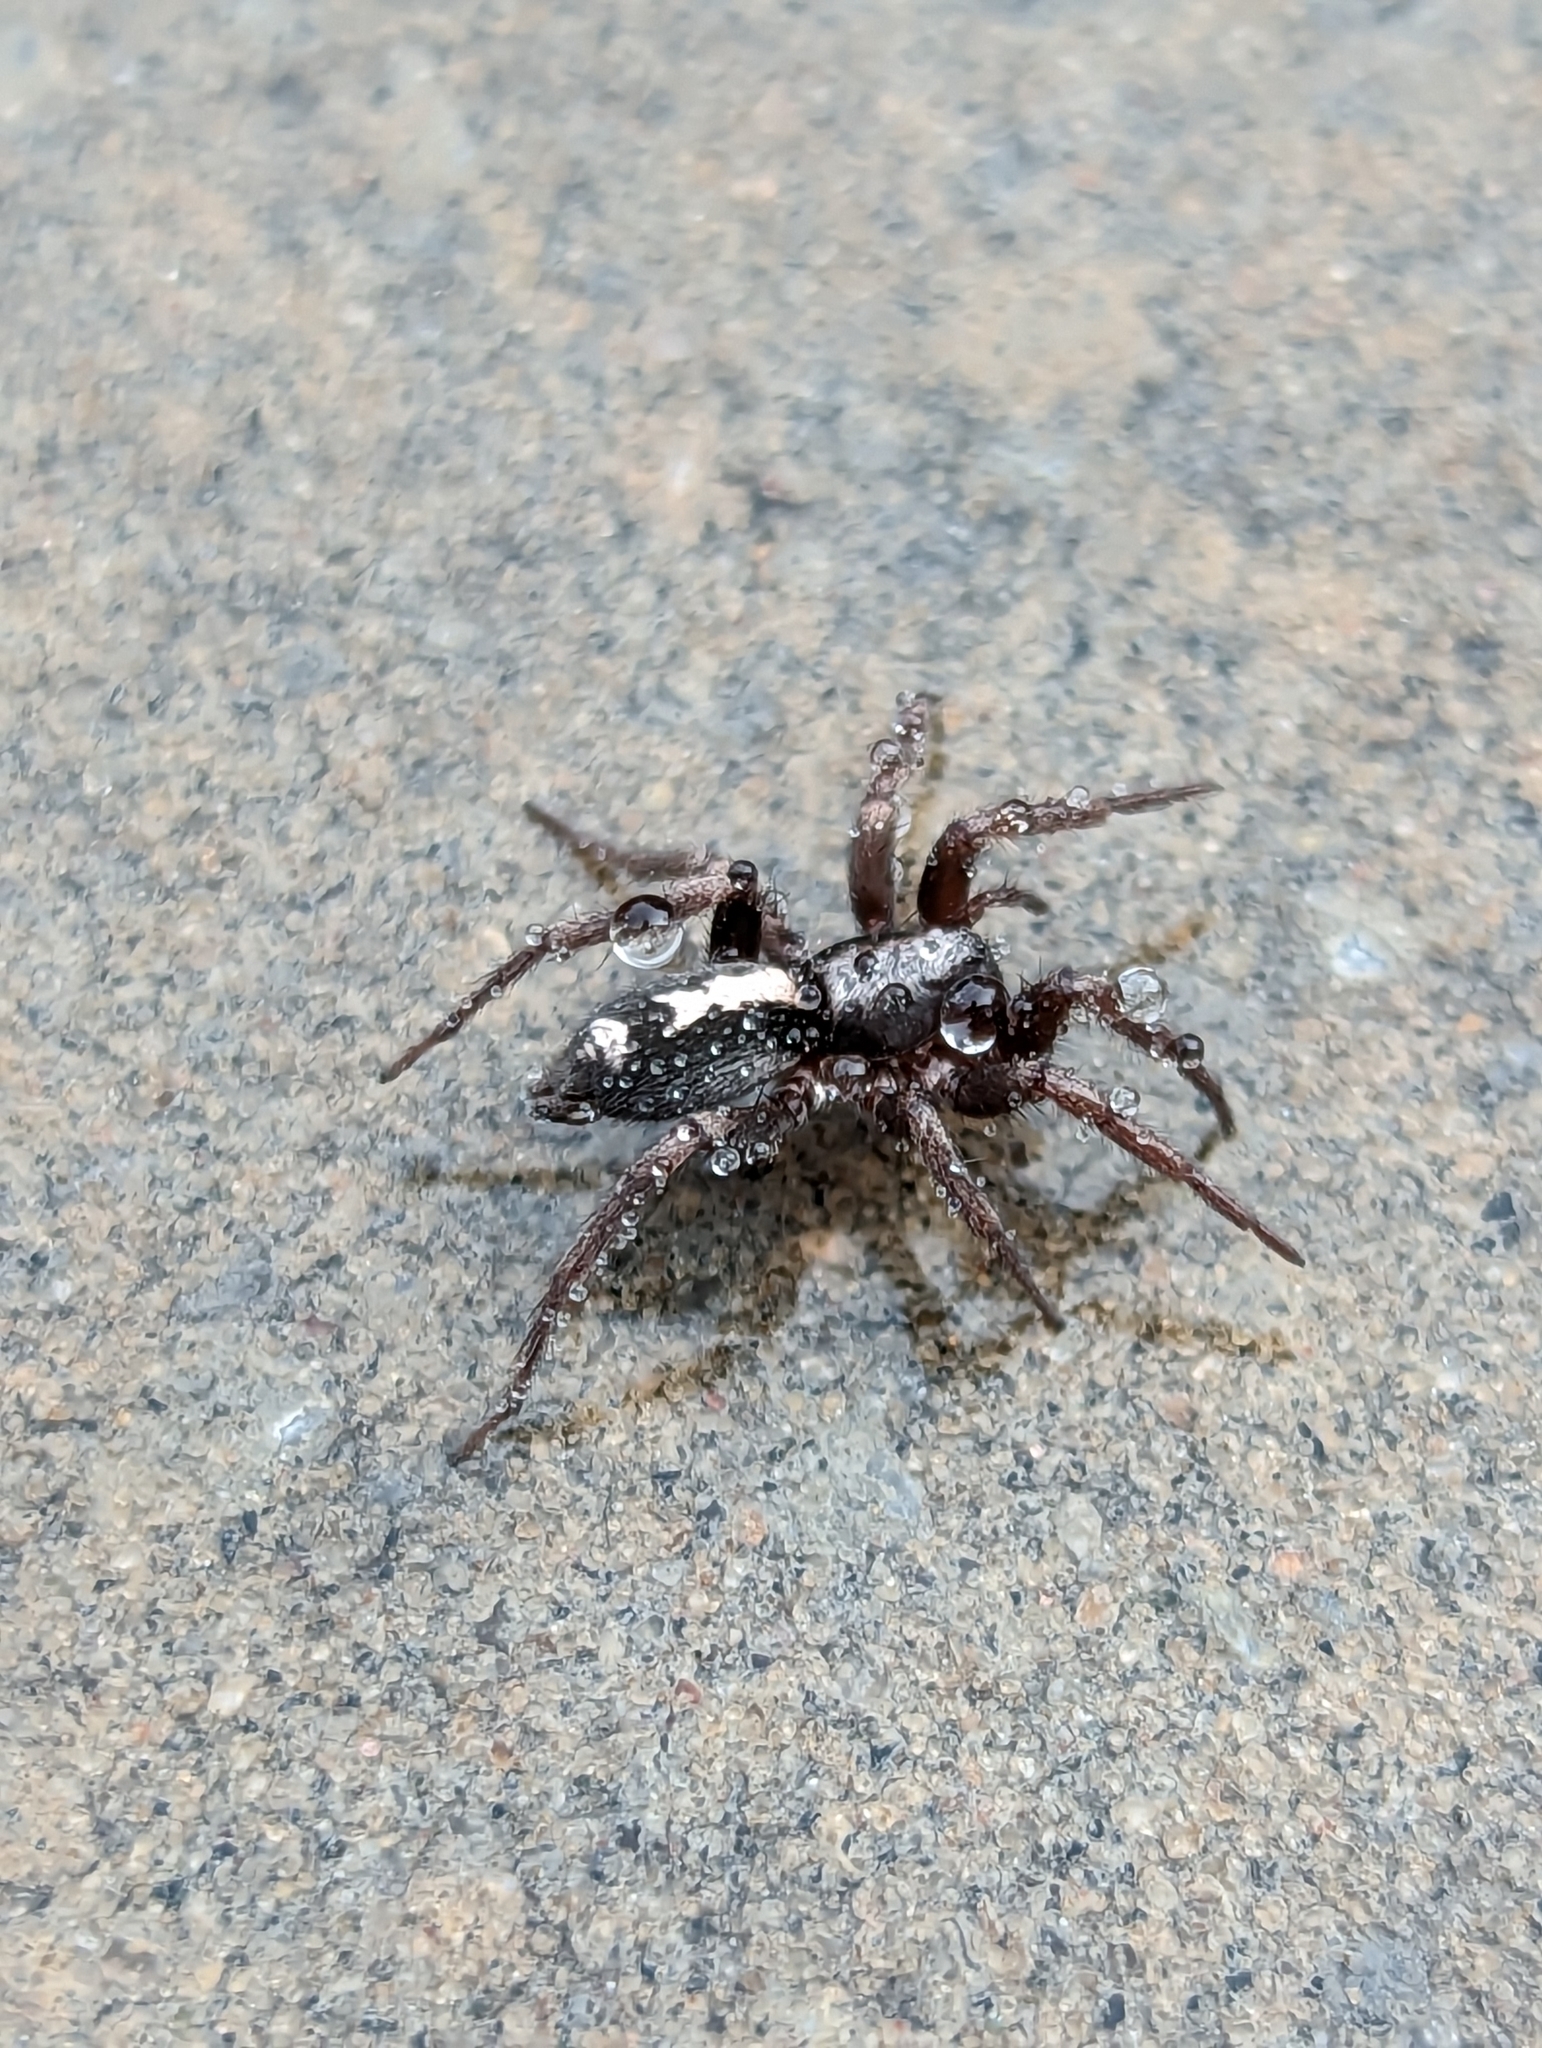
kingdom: Animalia
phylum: Arthropoda
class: Arachnida
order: Araneae
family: Gnaphosidae
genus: Herpyllus
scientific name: Herpyllus ecclesiasticus
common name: Eastern parson spider
